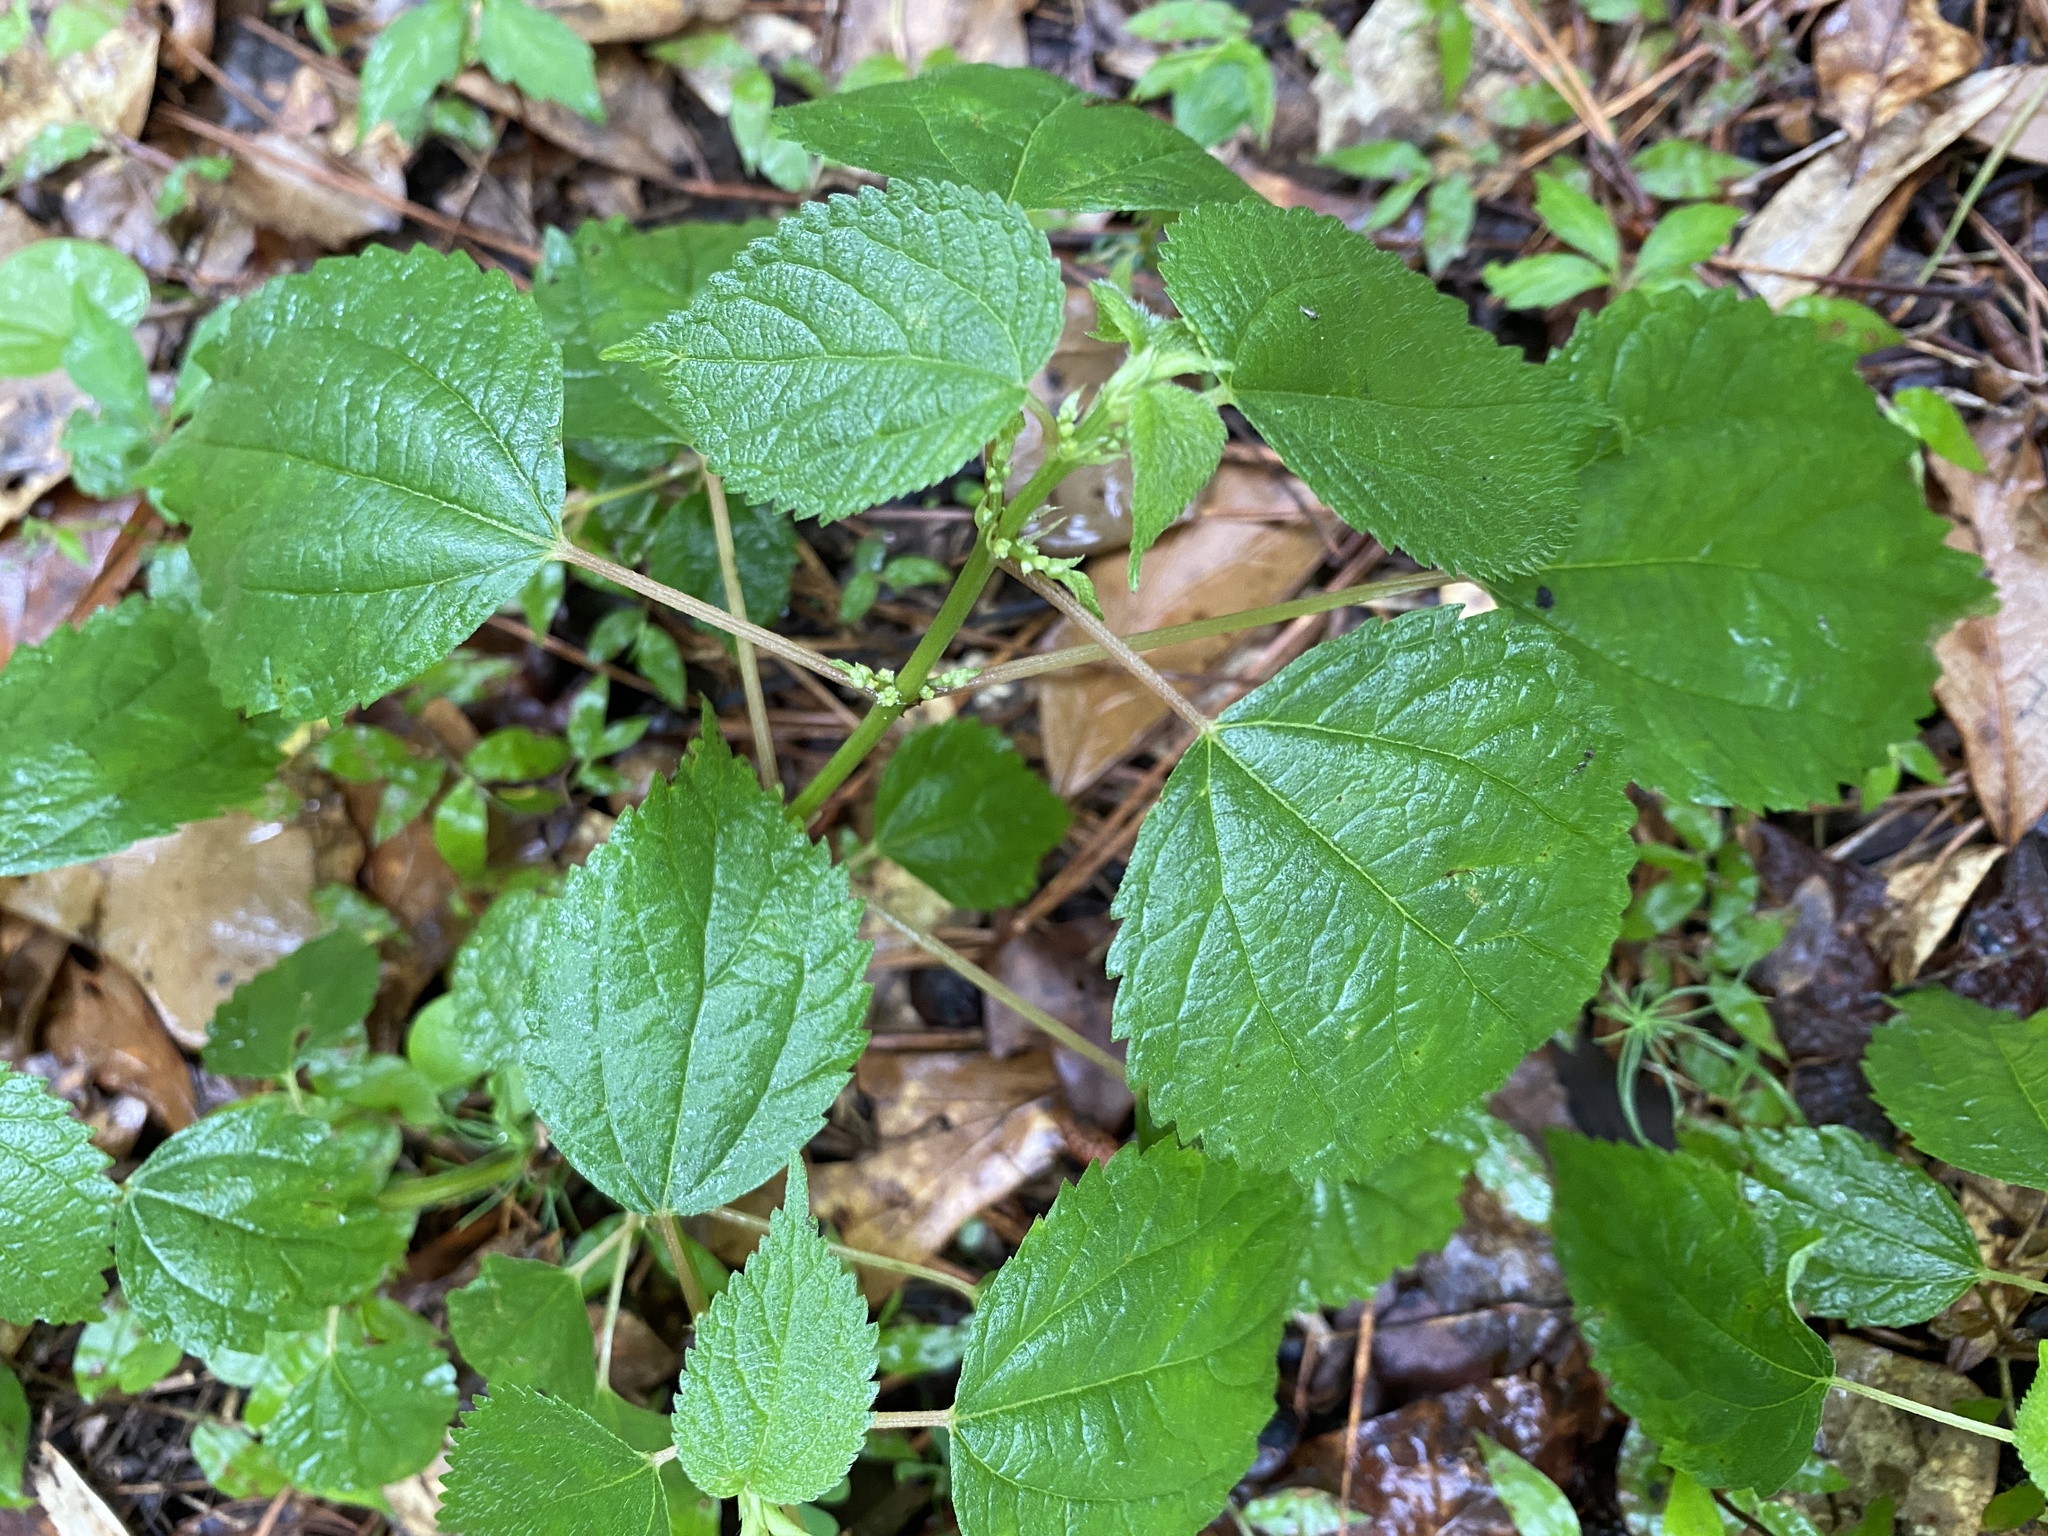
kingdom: Plantae
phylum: Tracheophyta
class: Magnoliopsida
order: Rosales
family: Urticaceae
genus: Boehmeria
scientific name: Boehmeria cylindrica
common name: Bog-hemp
